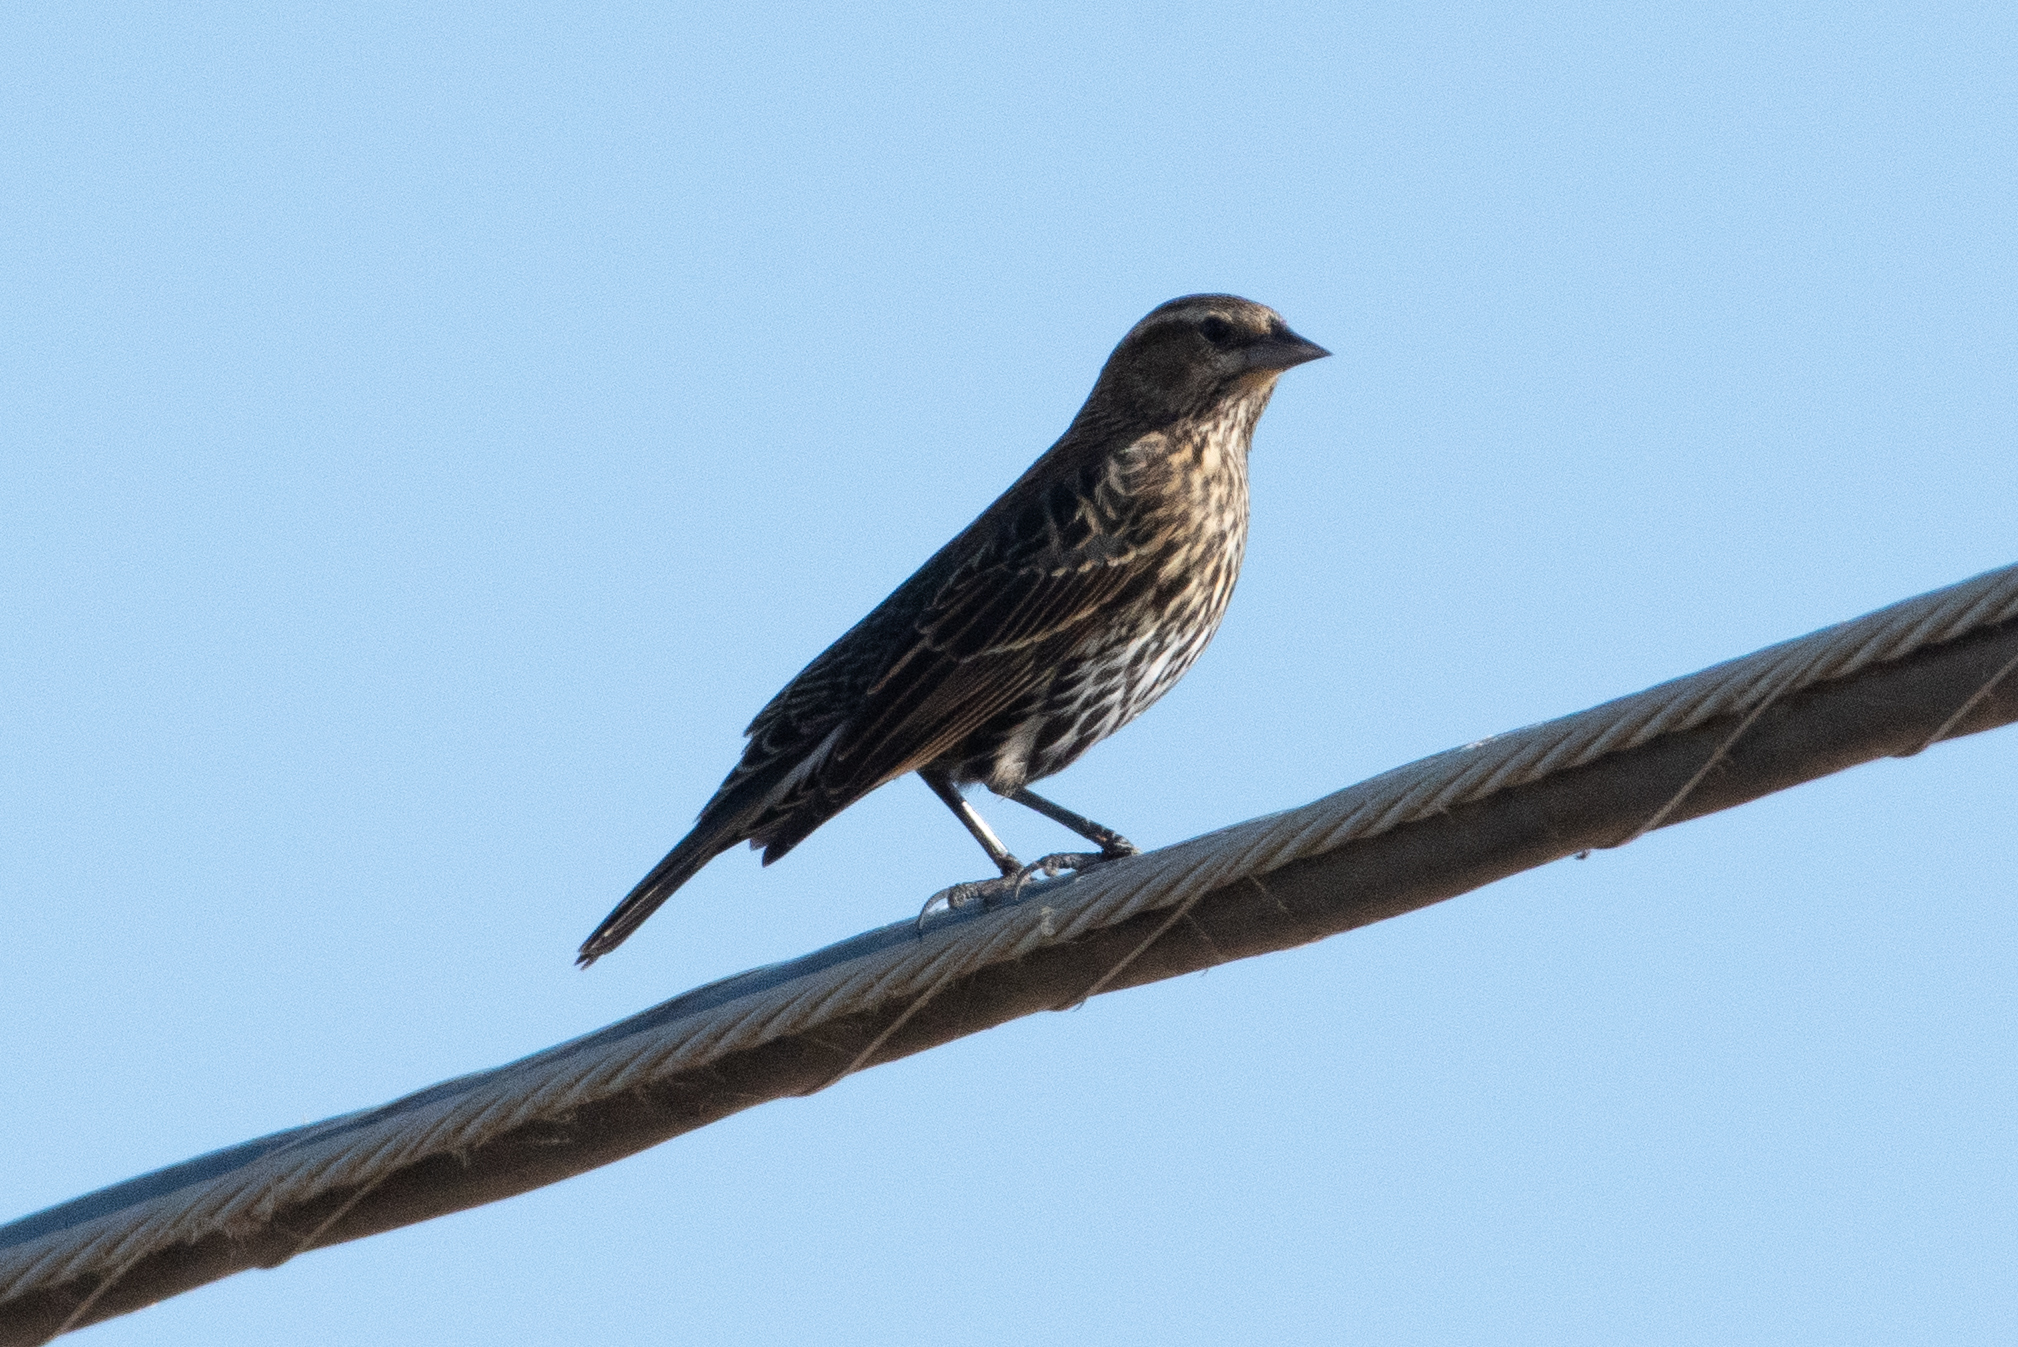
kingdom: Animalia
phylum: Chordata
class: Aves
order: Passeriformes
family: Icteridae
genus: Agelaius
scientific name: Agelaius phoeniceus
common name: Red-winged blackbird
